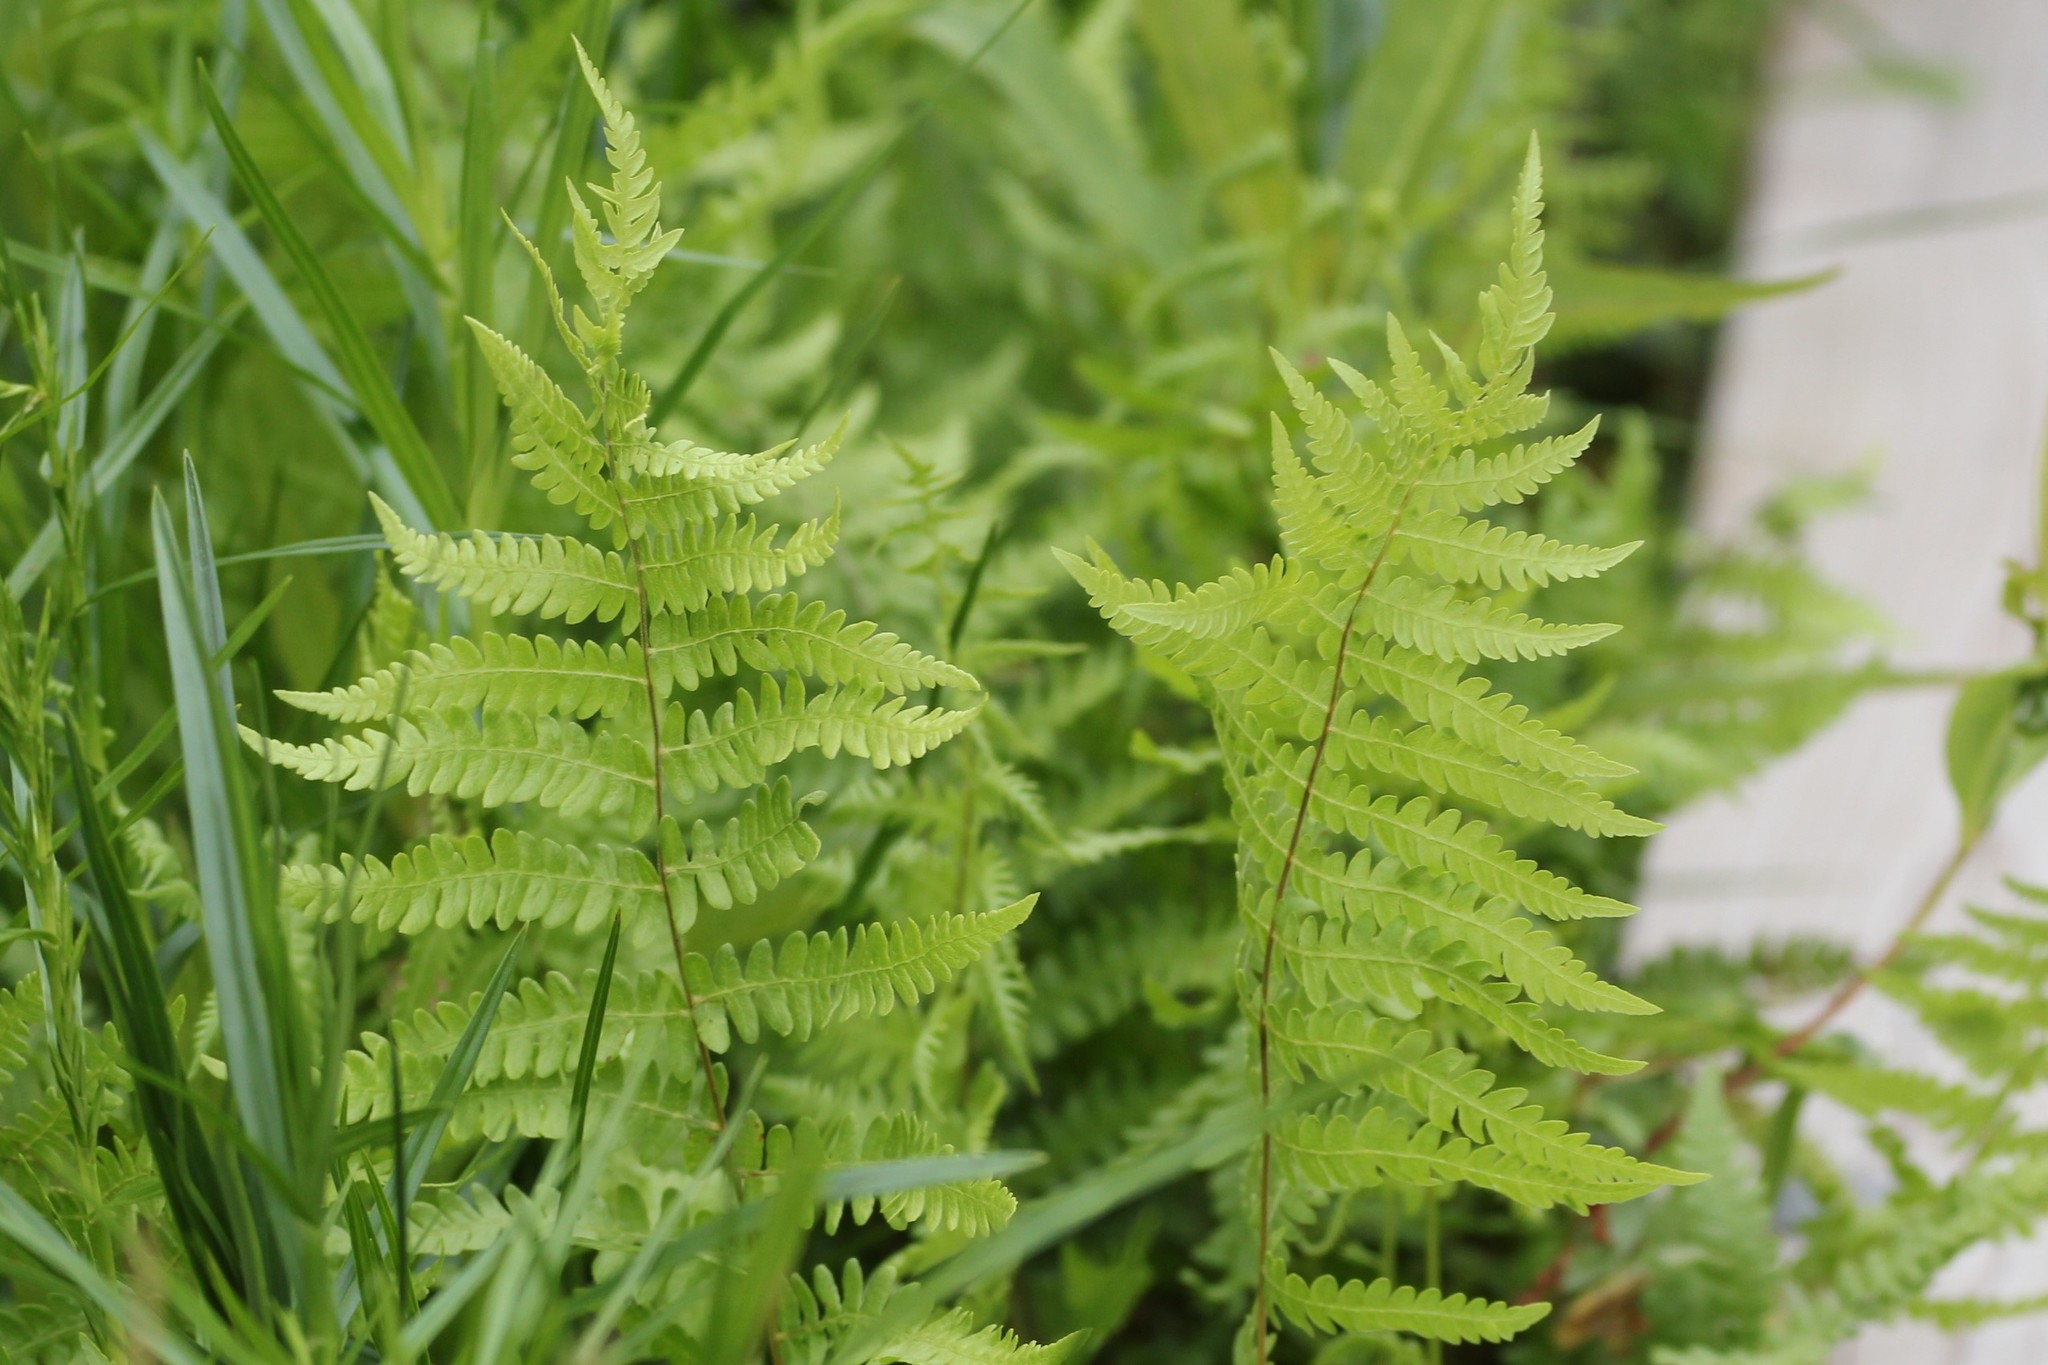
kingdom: Plantae
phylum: Tracheophyta
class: Polypodiopsida
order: Polypodiales
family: Thelypteridaceae
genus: Thelypteris
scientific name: Thelypteris palustris
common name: Marsh fern
